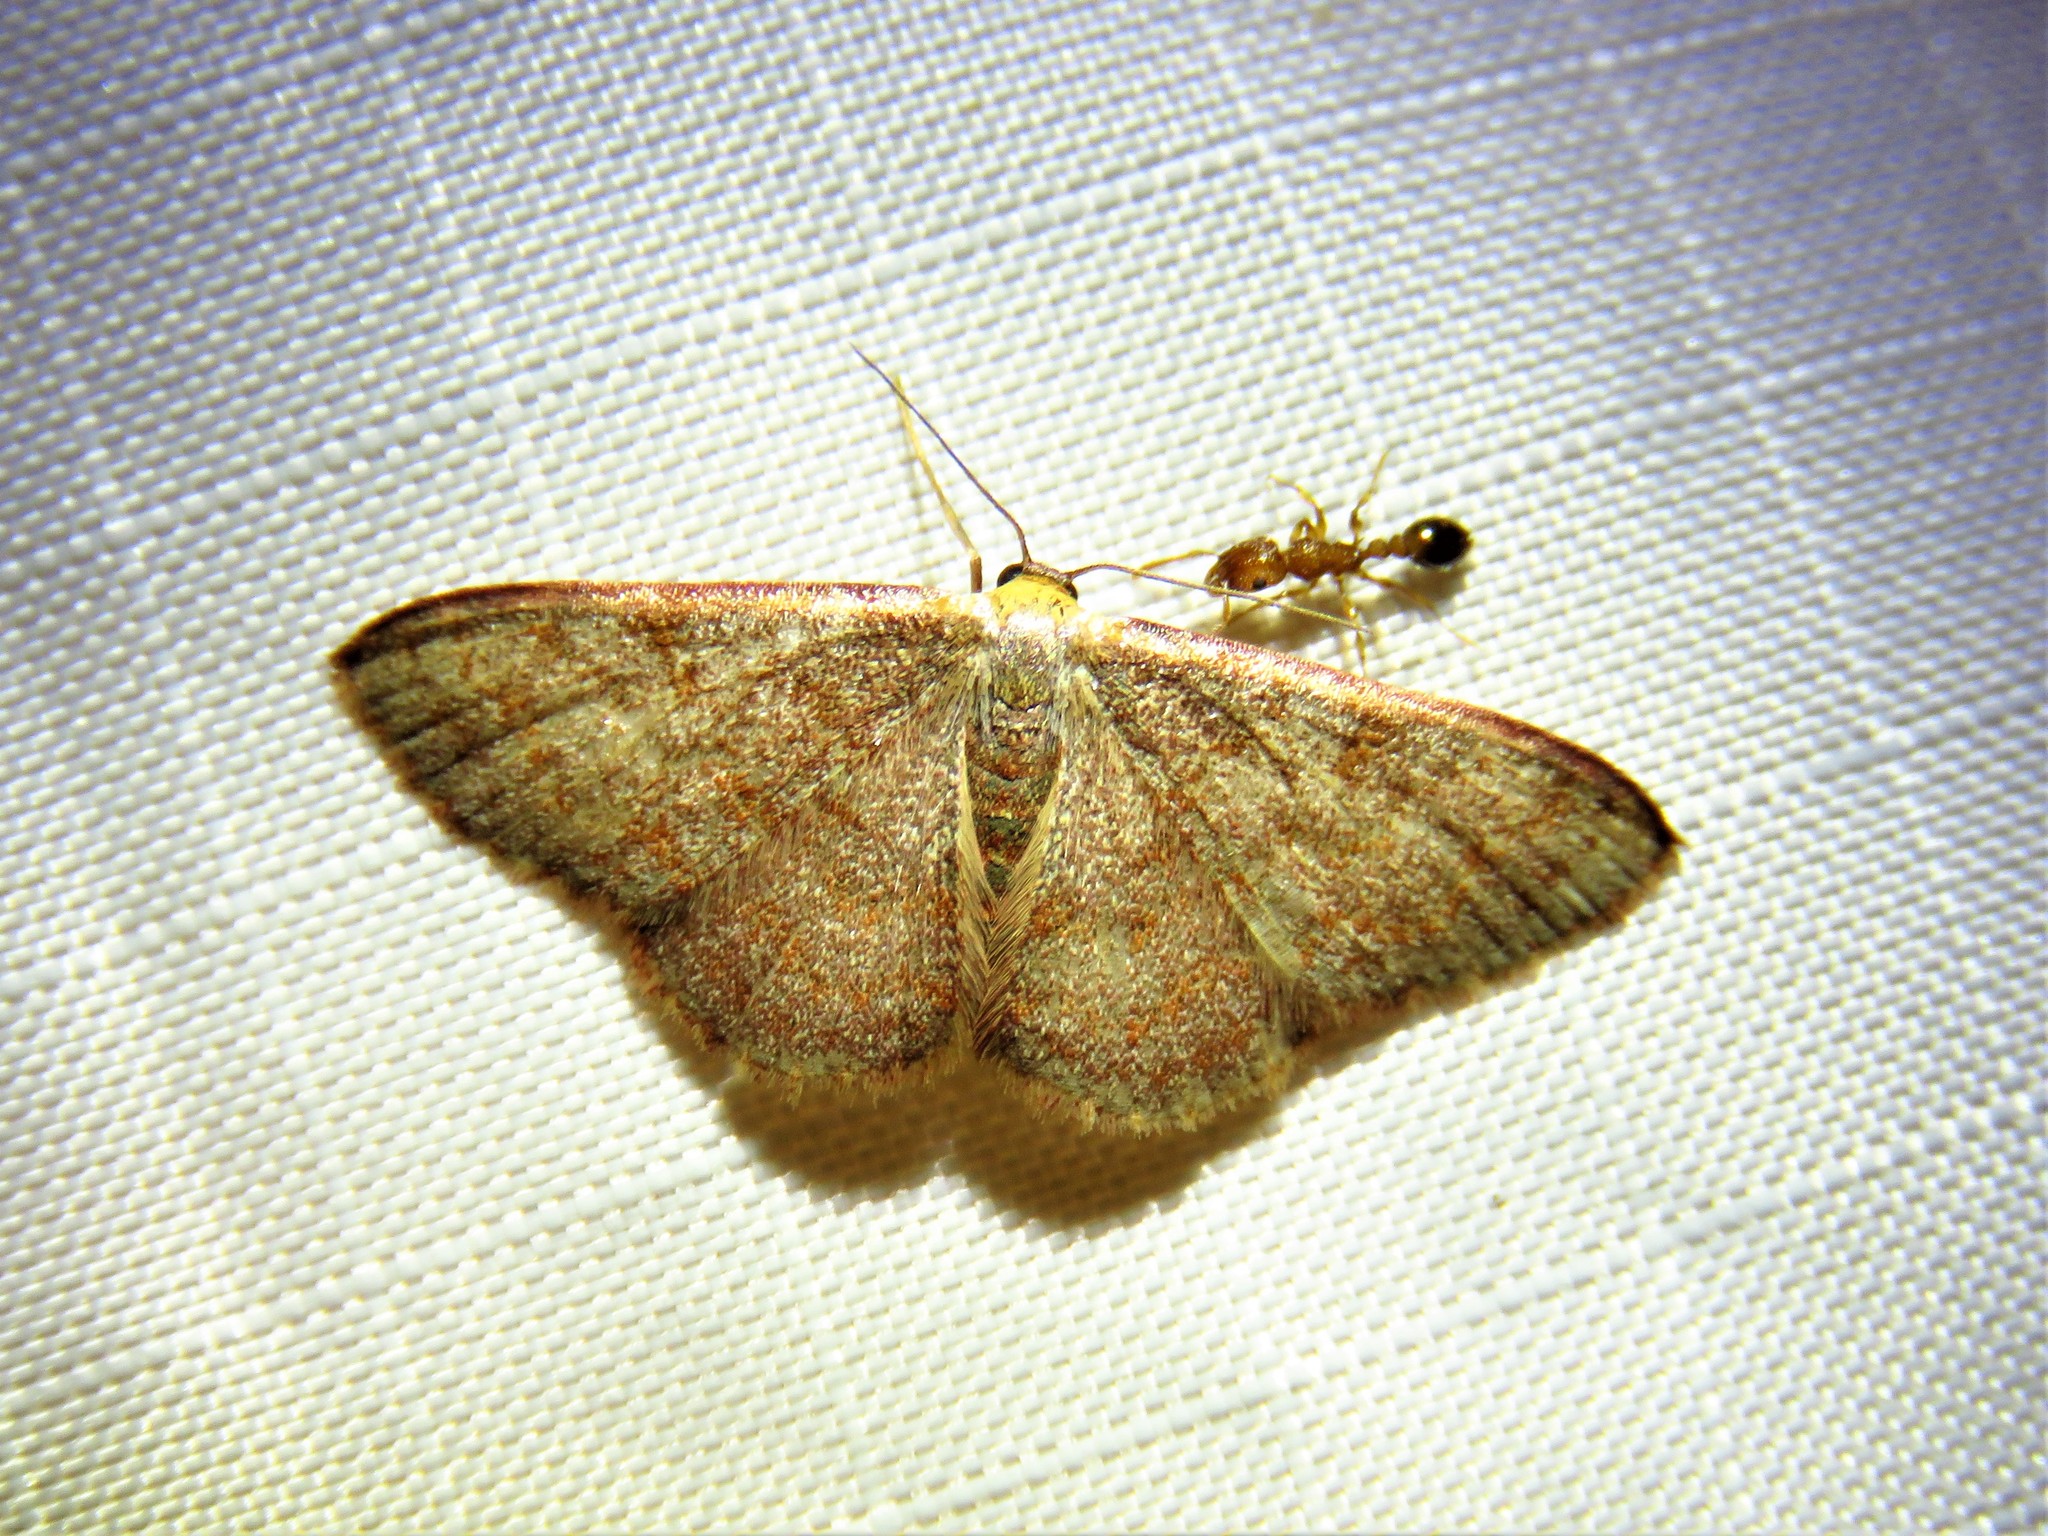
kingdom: Animalia
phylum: Arthropoda
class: Insecta
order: Lepidoptera
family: Geometridae
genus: Leptostales
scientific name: Leptostales pannaria
